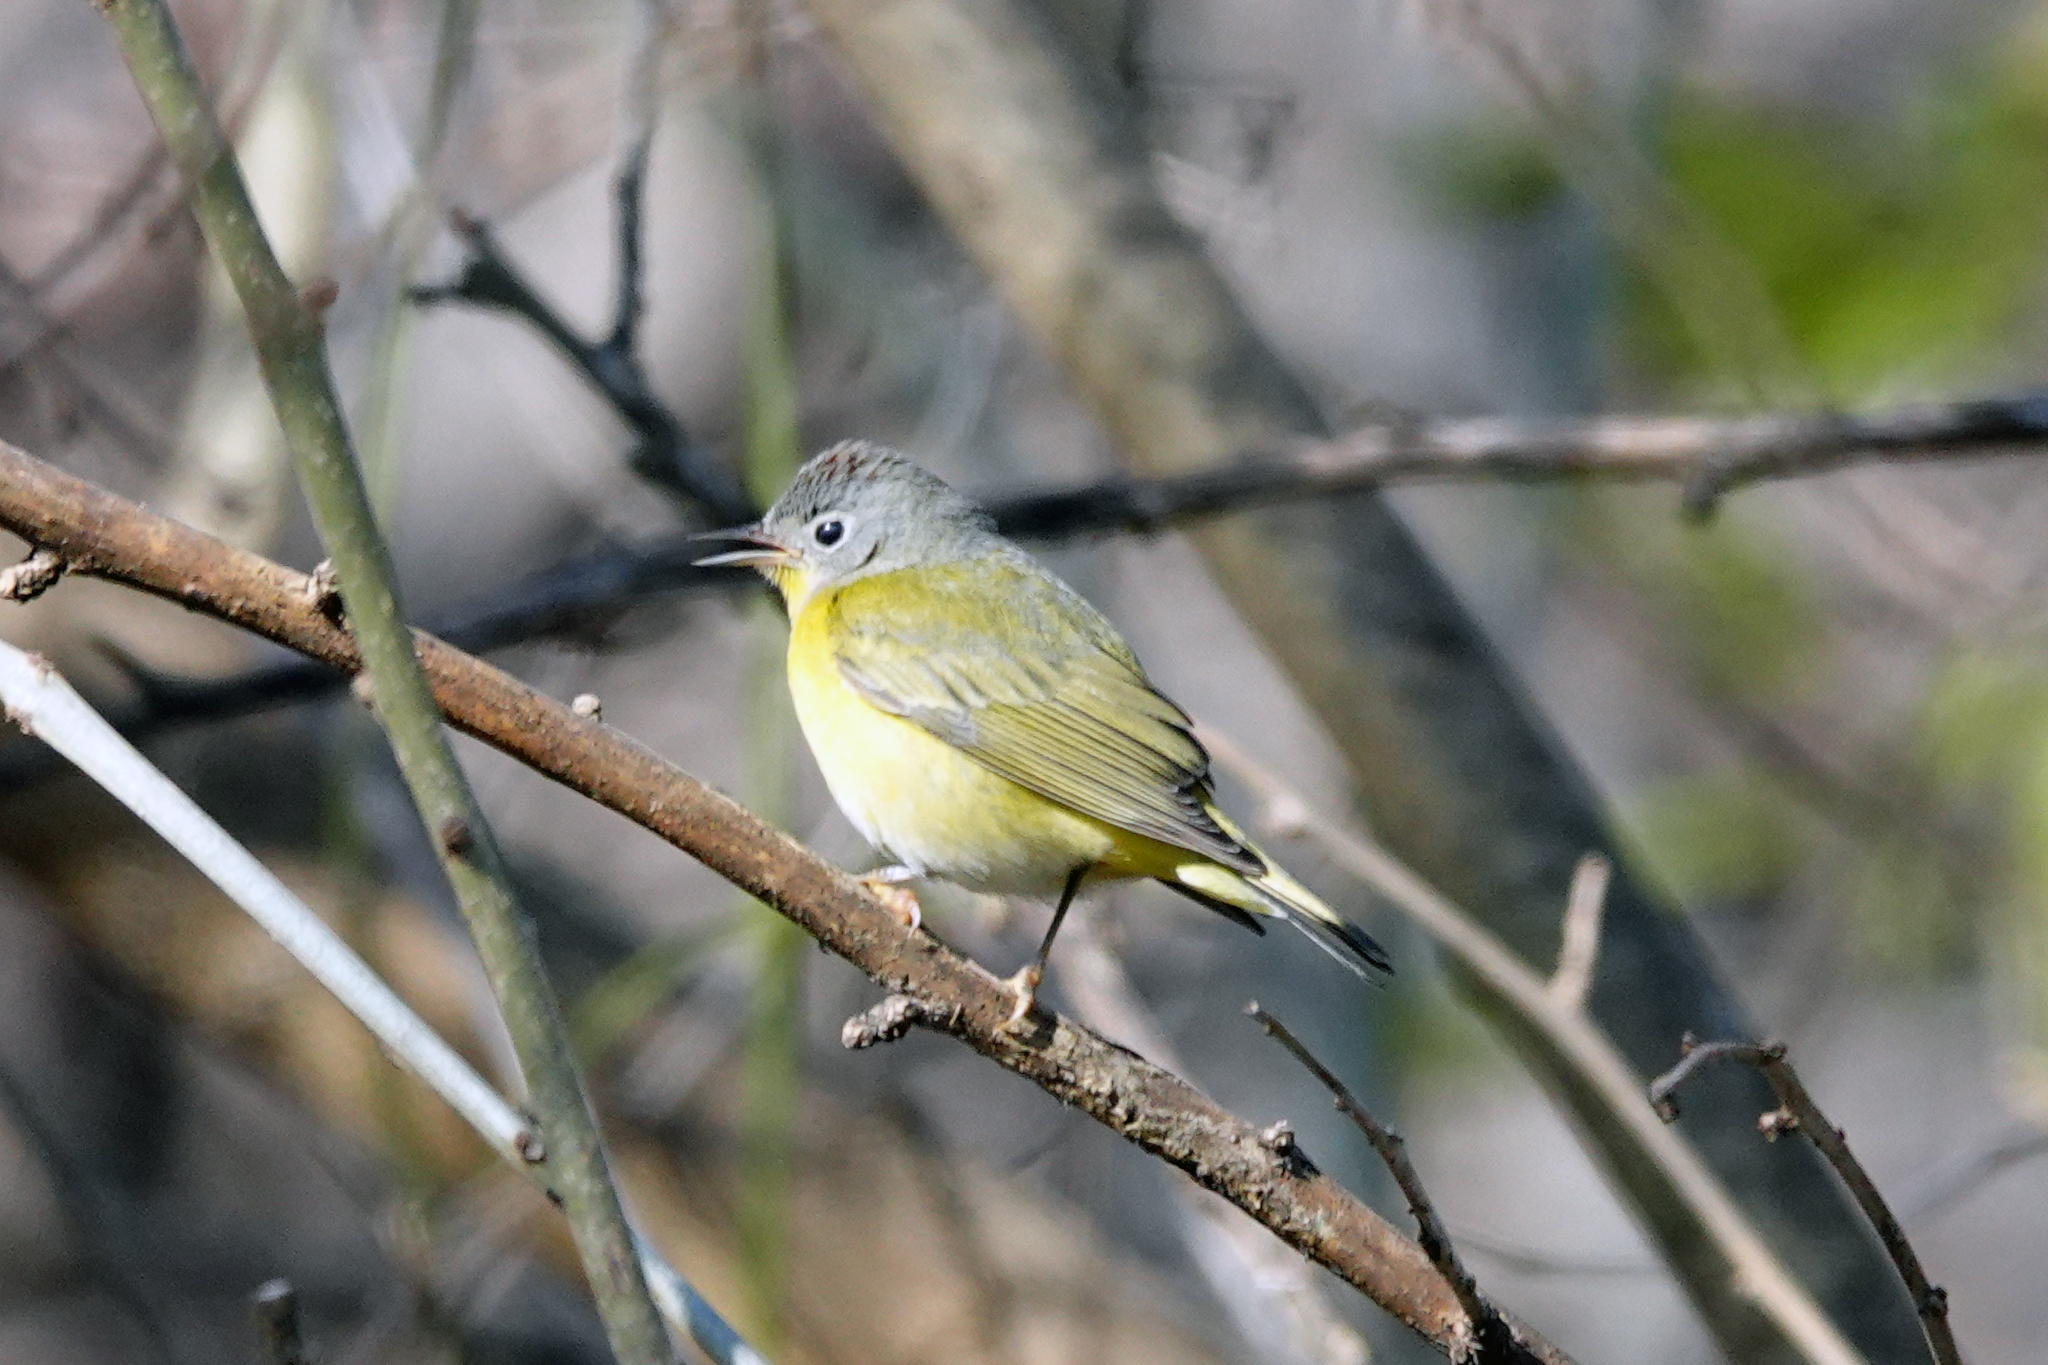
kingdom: Animalia
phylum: Chordata
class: Aves
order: Passeriformes
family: Parulidae
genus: Leiothlypis
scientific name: Leiothlypis ruficapilla
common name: Nashville warbler
